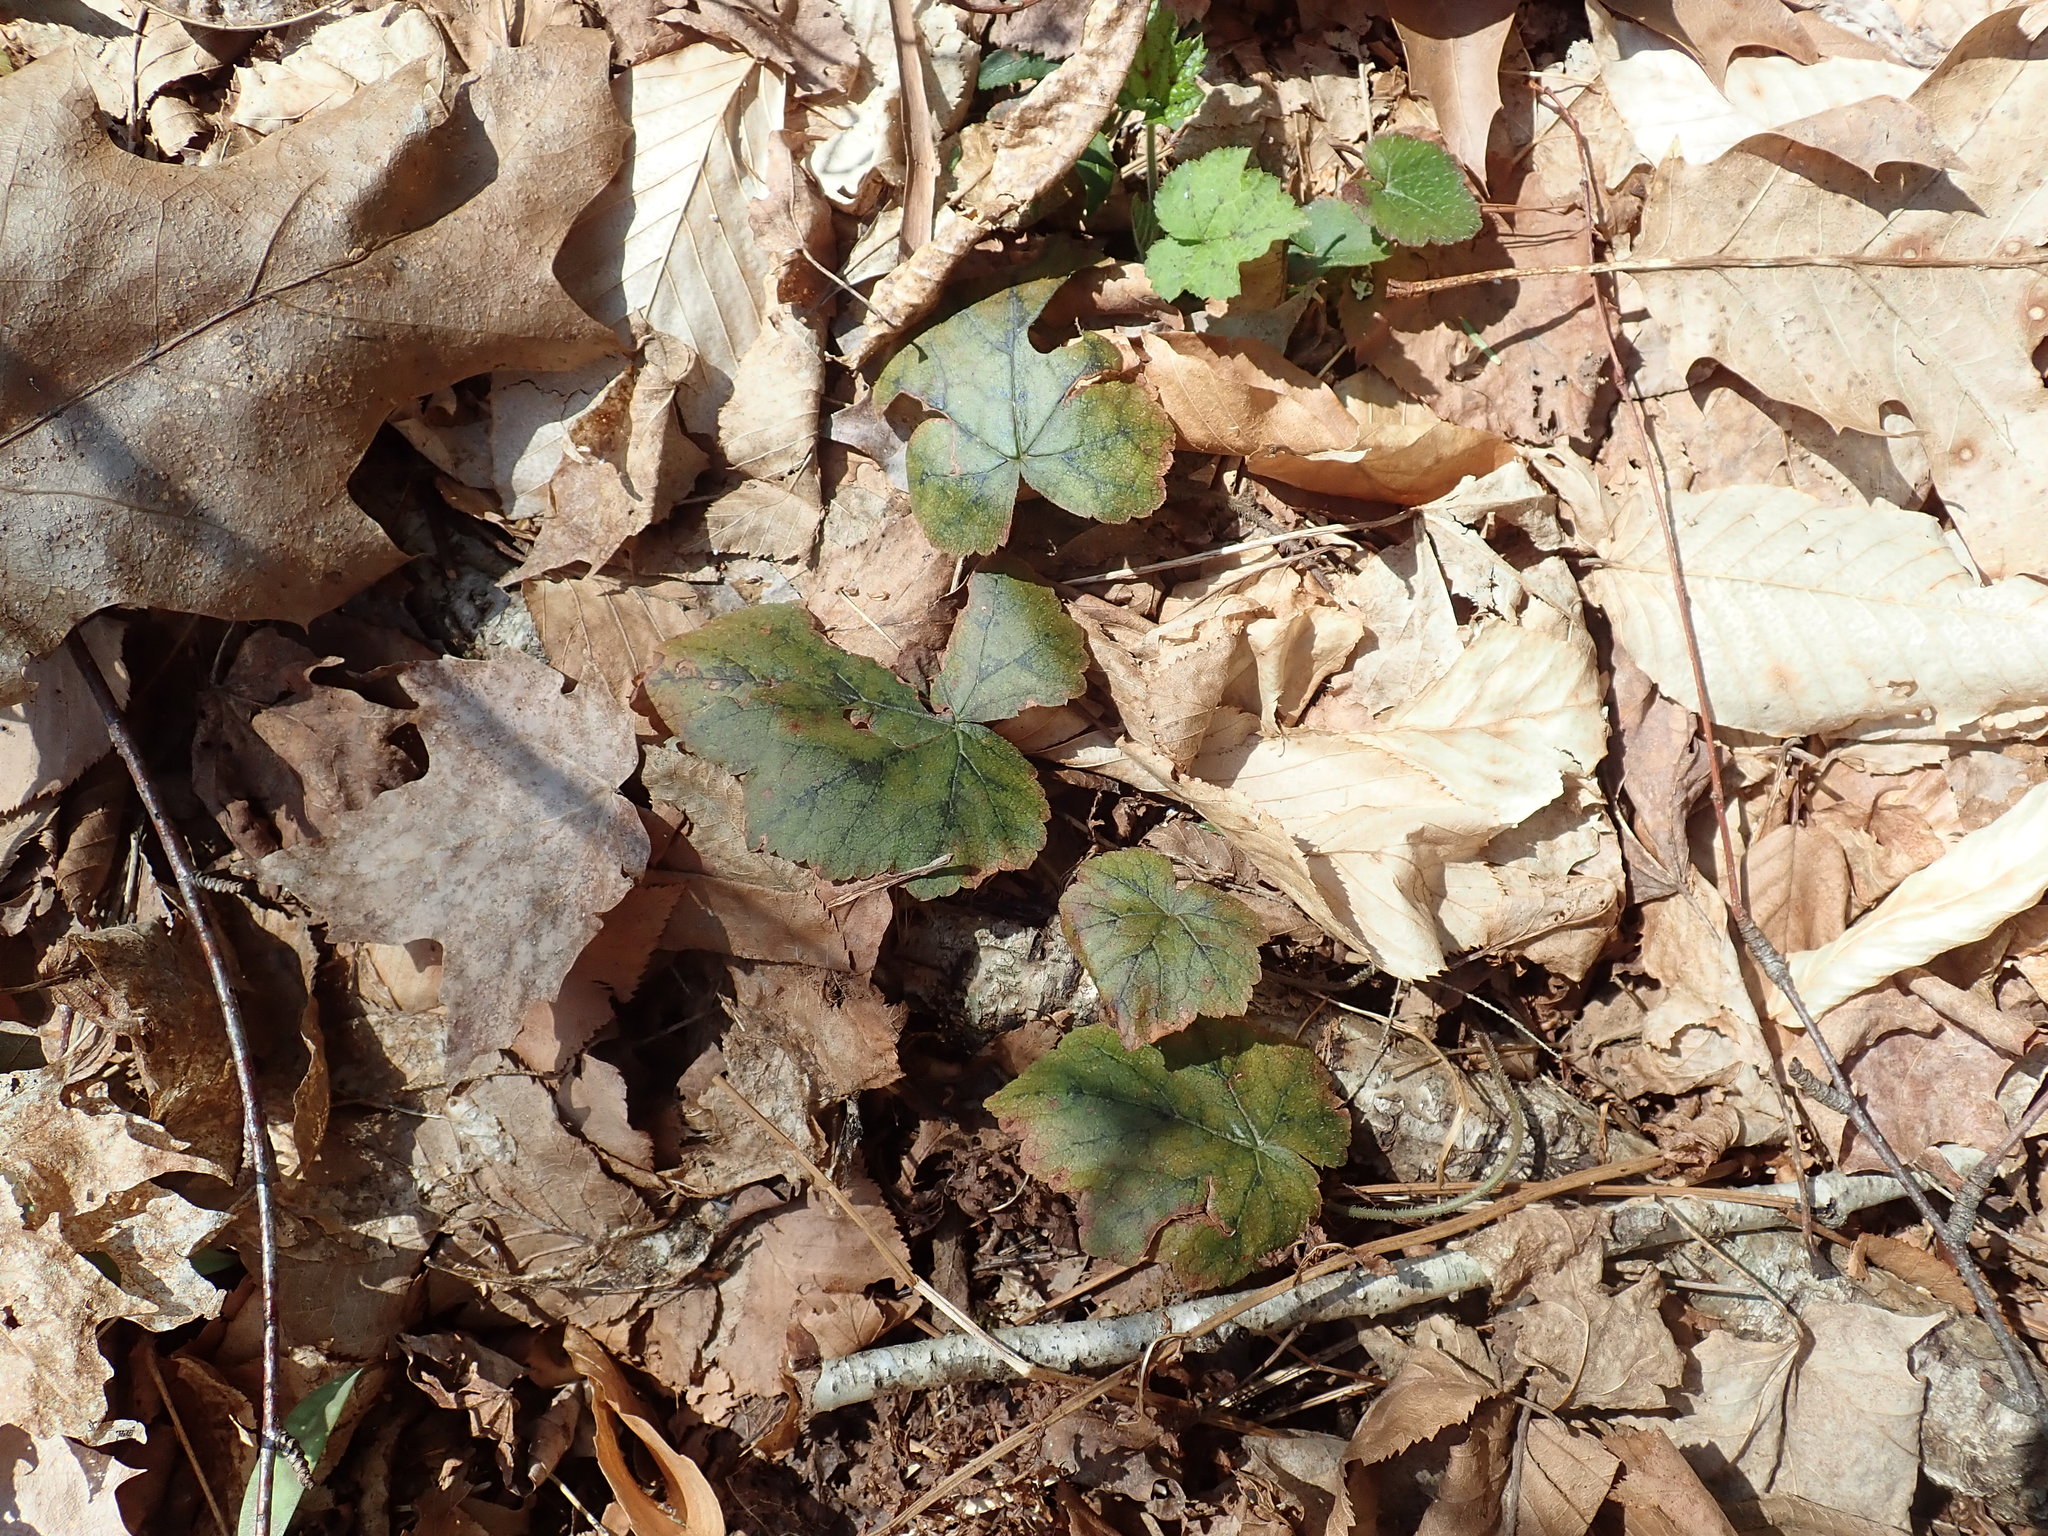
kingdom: Plantae
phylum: Tracheophyta
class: Magnoliopsida
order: Saxifragales
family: Saxifragaceae
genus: Tiarella
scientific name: Tiarella stolonifera
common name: Stoloniferous foamflower
